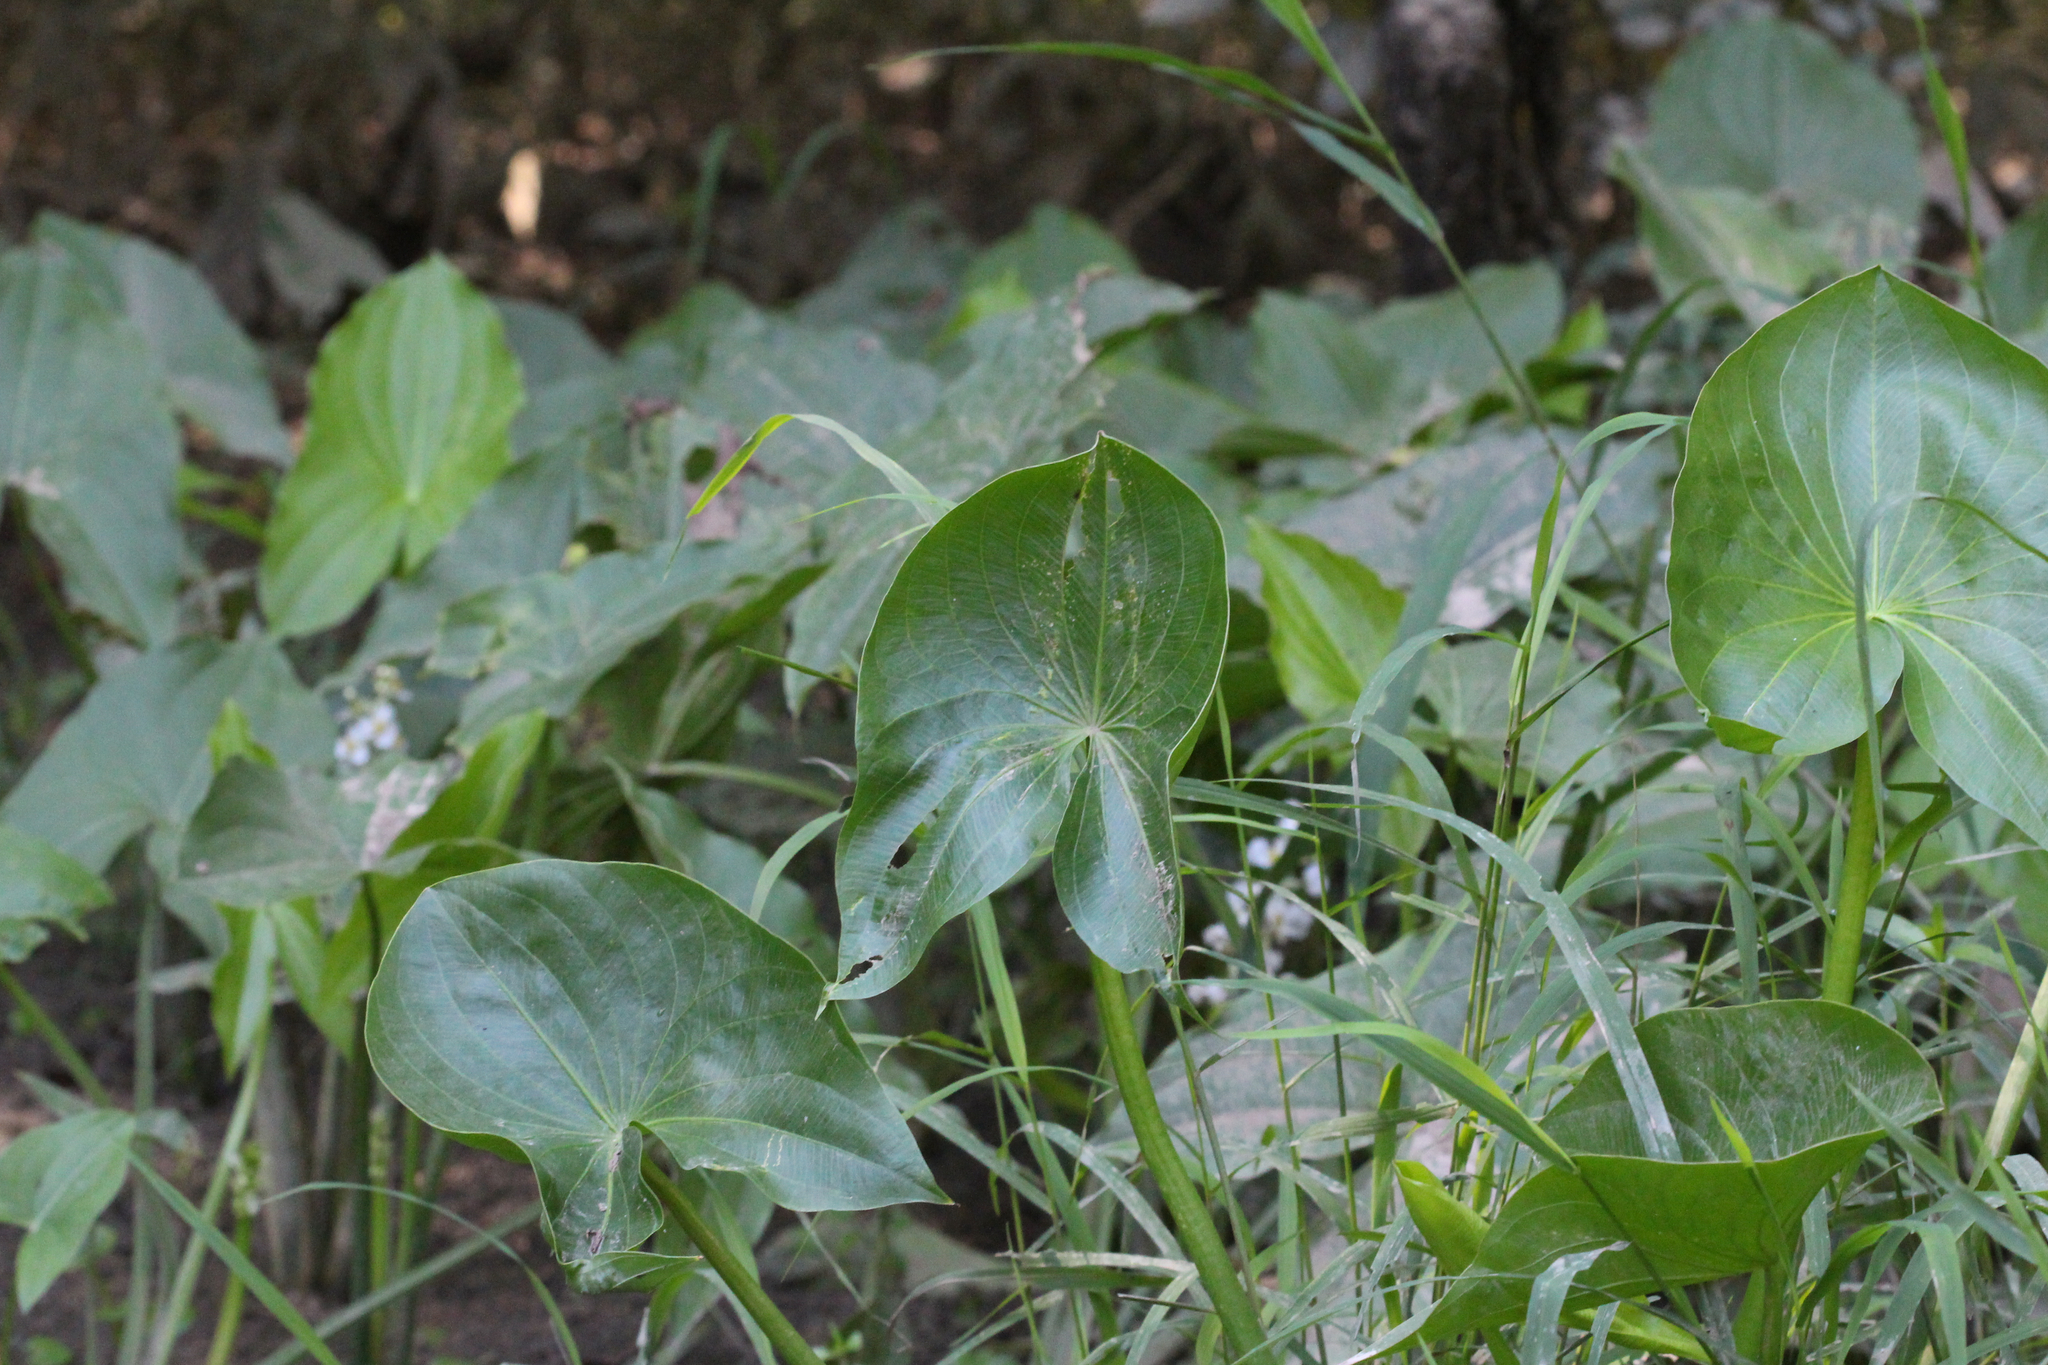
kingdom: Plantae
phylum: Tracheophyta
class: Liliopsida
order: Alismatales
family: Alismataceae
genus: Sagittaria
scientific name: Sagittaria australis
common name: Appalachian arrowhead
